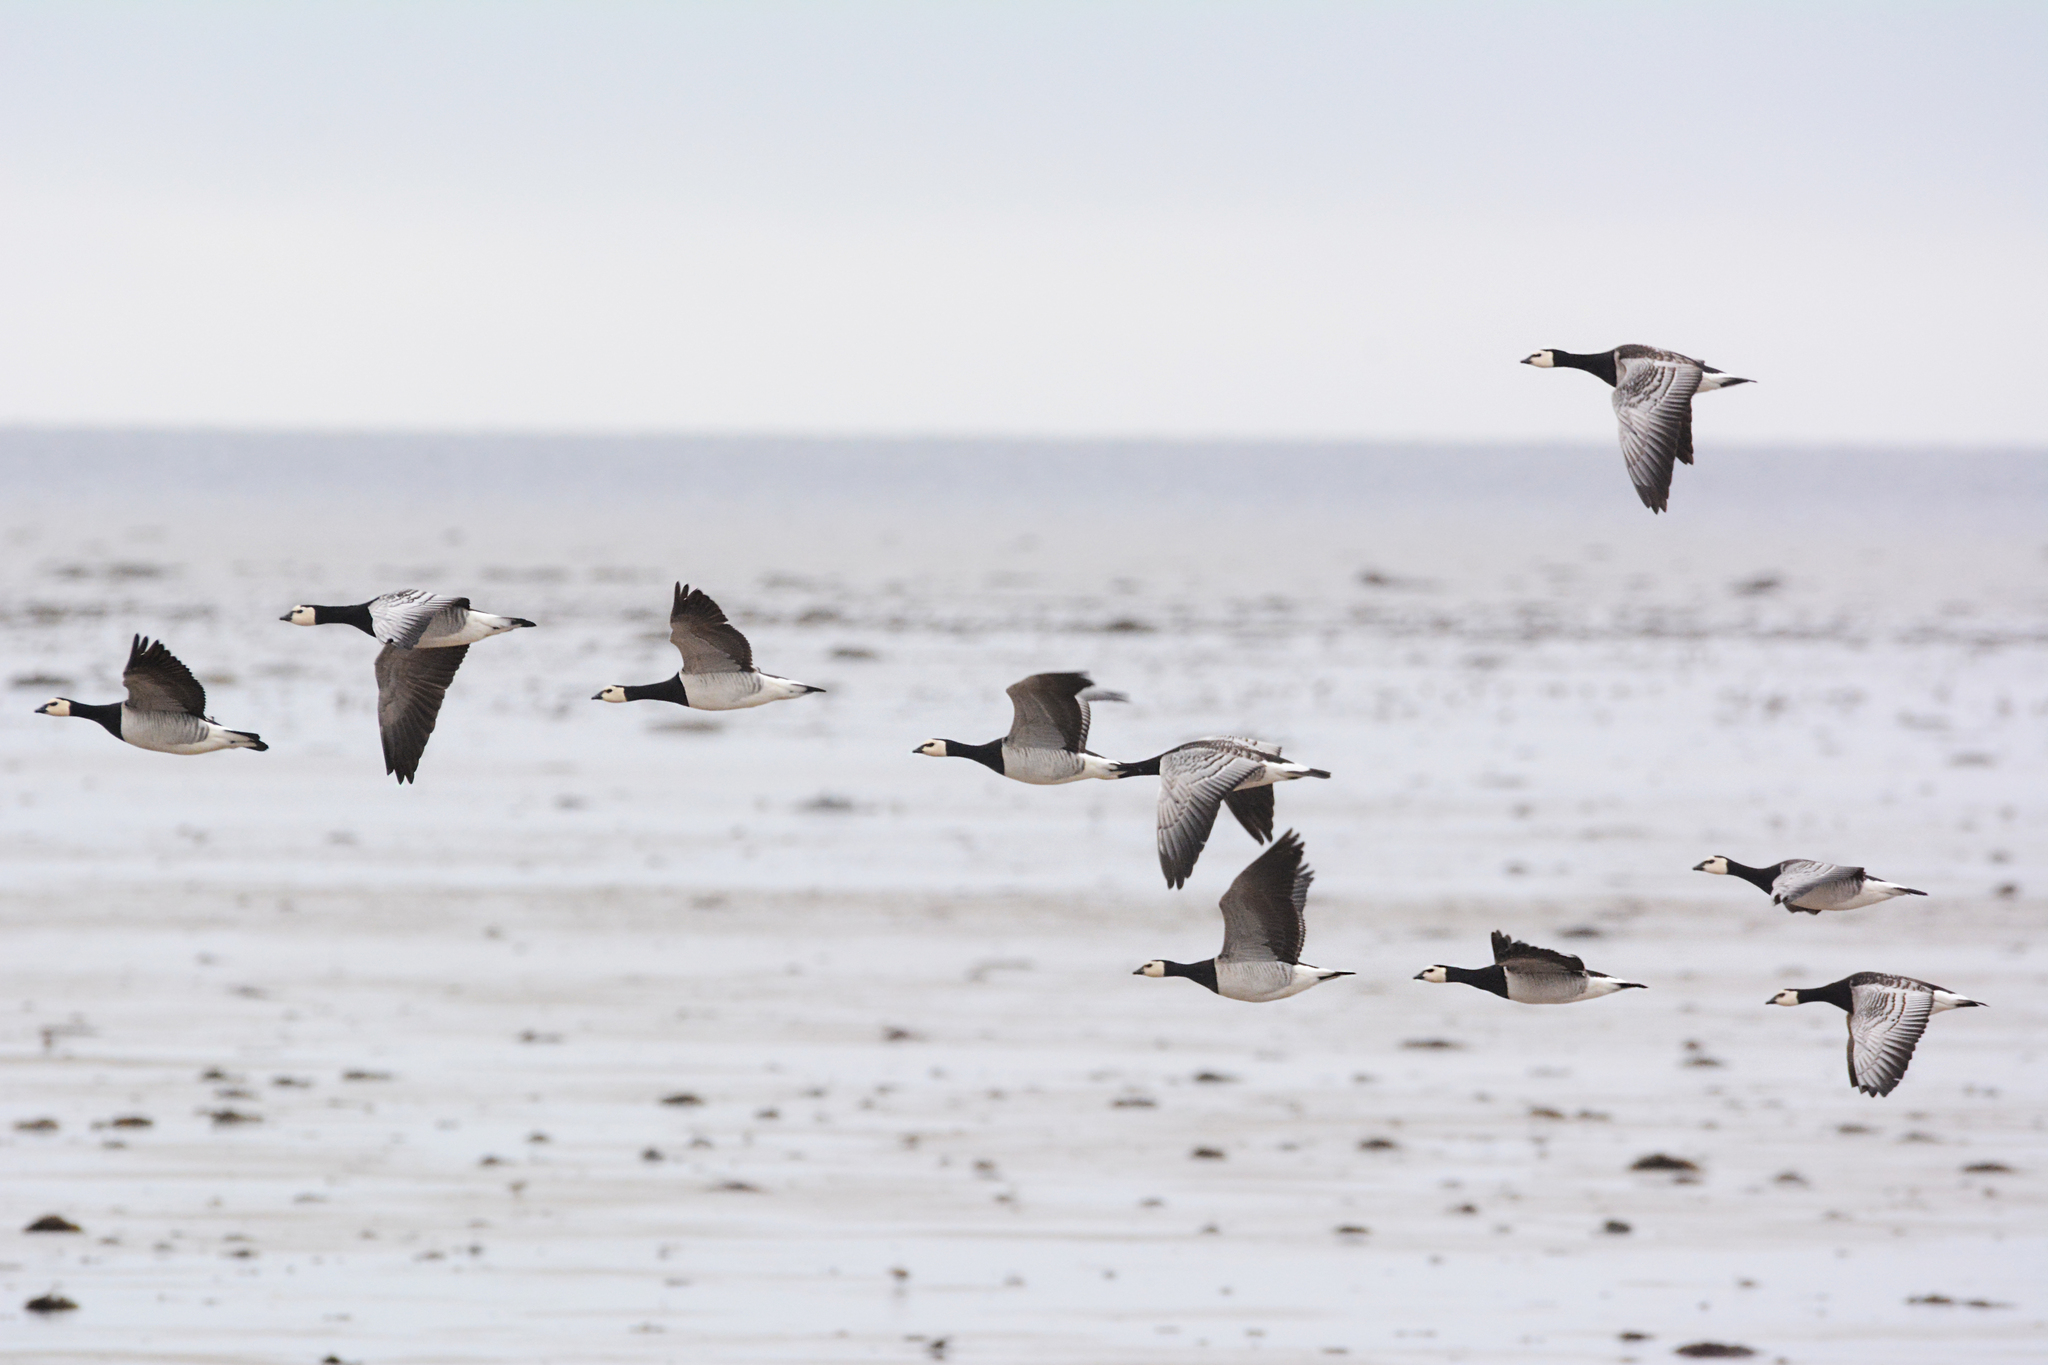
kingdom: Animalia
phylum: Chordata
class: Aves
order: Anseriformes
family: Anatidae
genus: Branta
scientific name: Branta leucopsis
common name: Barnacle goose
